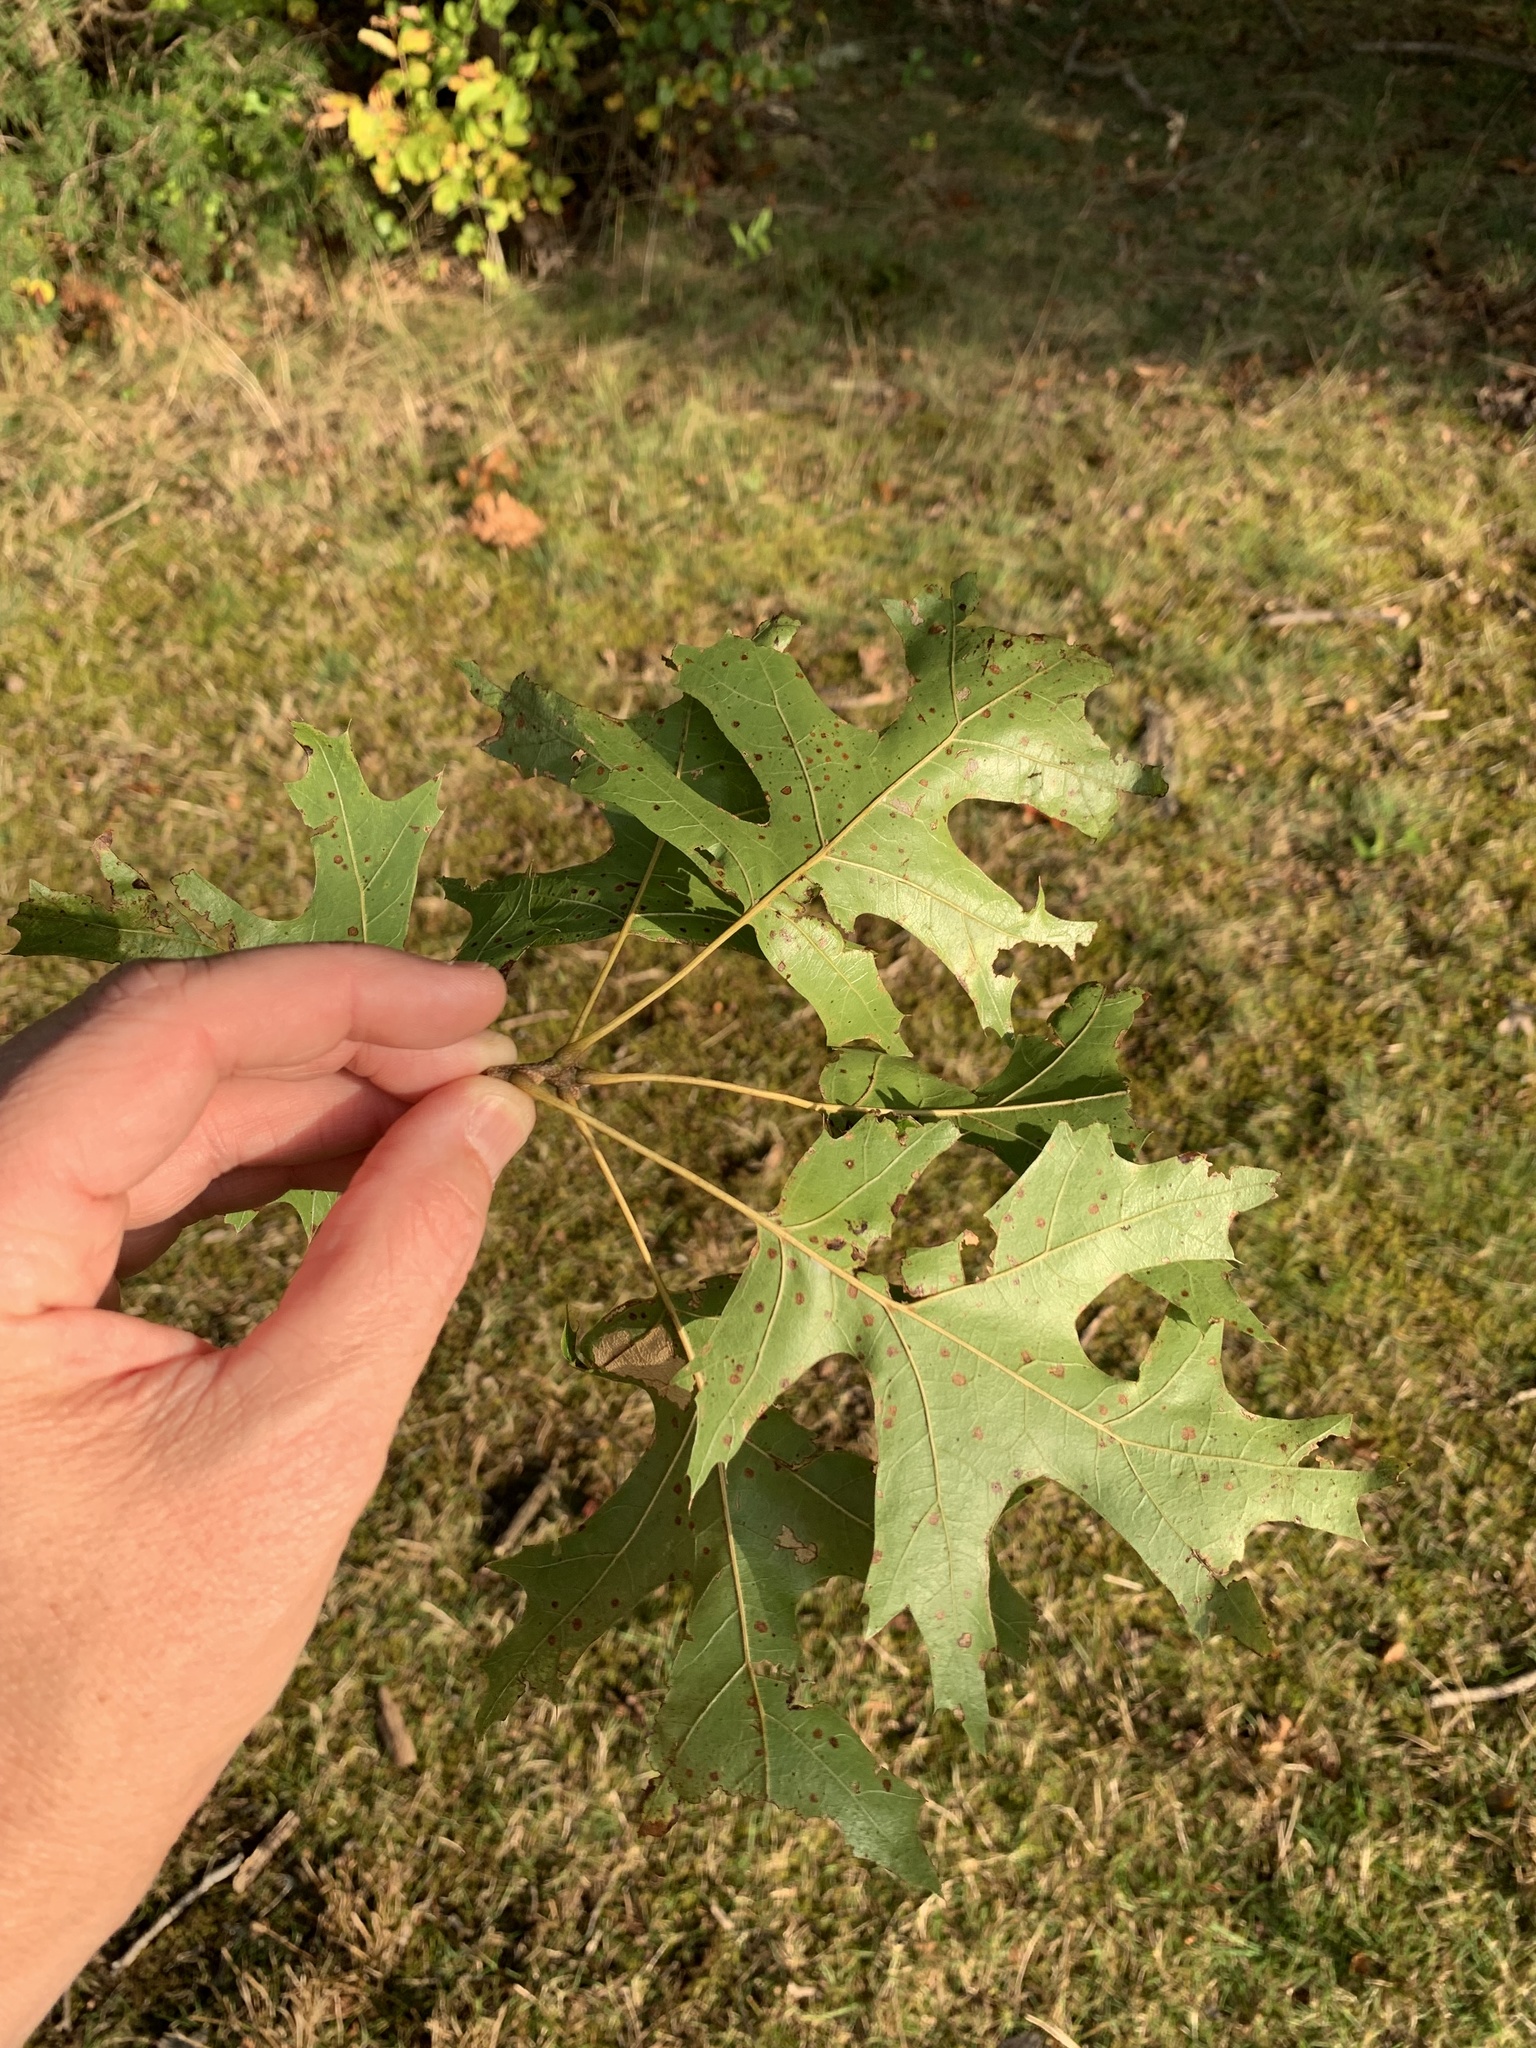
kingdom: Plantae
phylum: Tracheophyta
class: Magnoliopsida
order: Fagales
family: Fagaceae
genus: Quercus
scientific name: Quercus coccinea
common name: Scarlet oak
